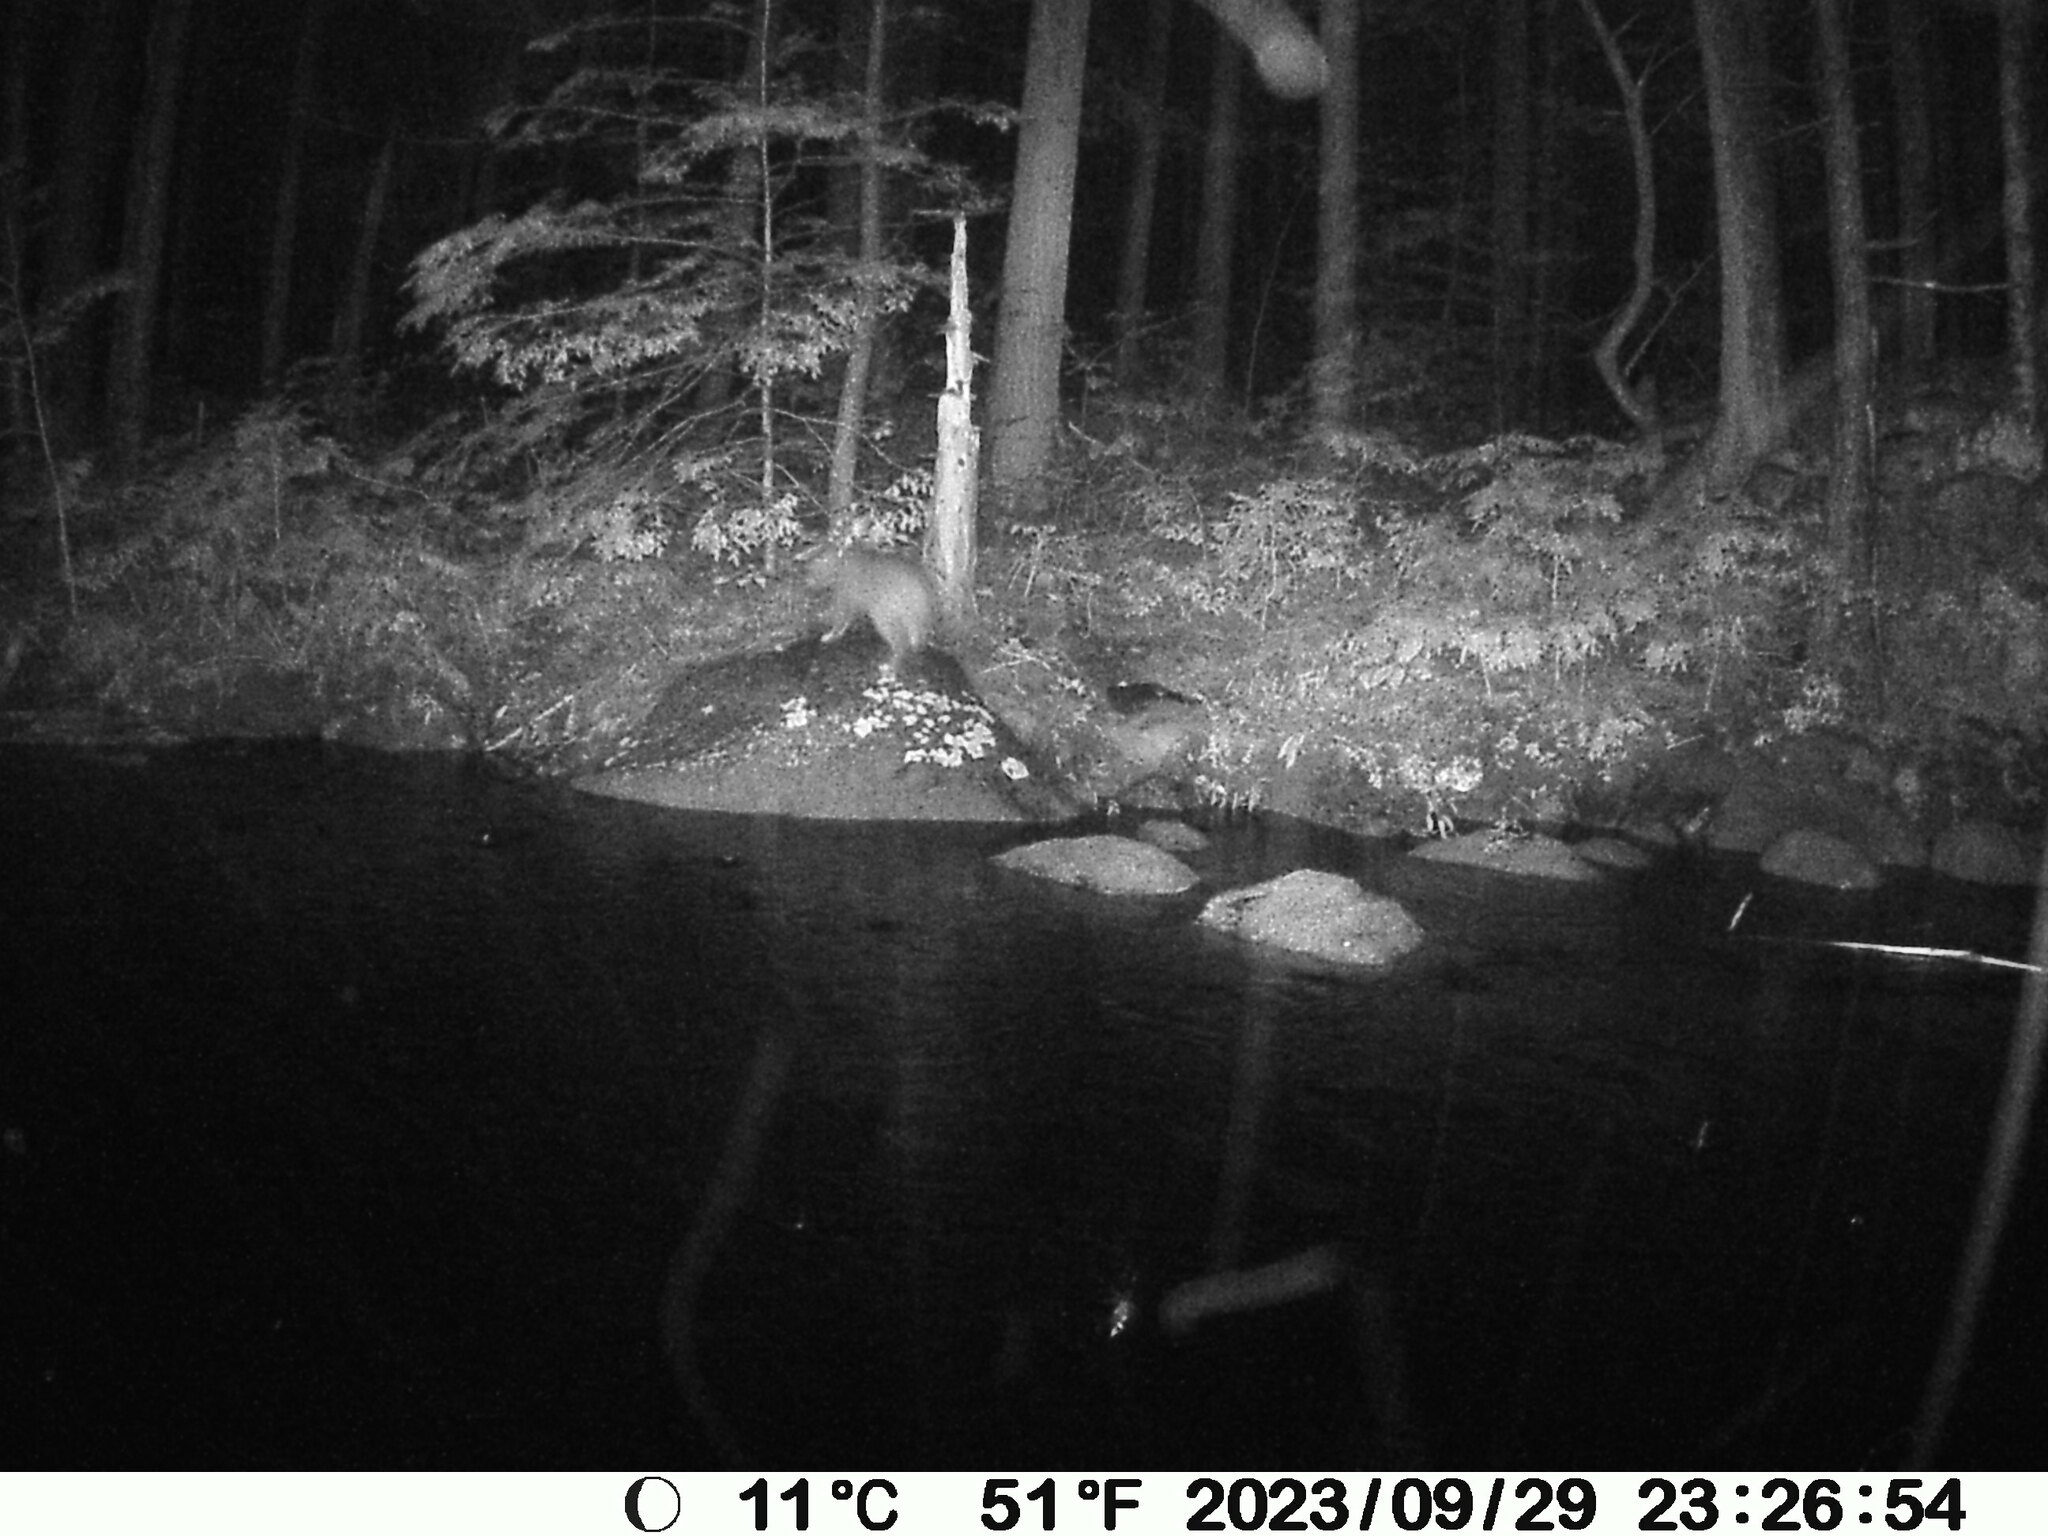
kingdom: Animalia
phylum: Chordata
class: Mammalia
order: Carnivora
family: Felidae
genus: Lynx
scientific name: Lynx rufus
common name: Bobcat
